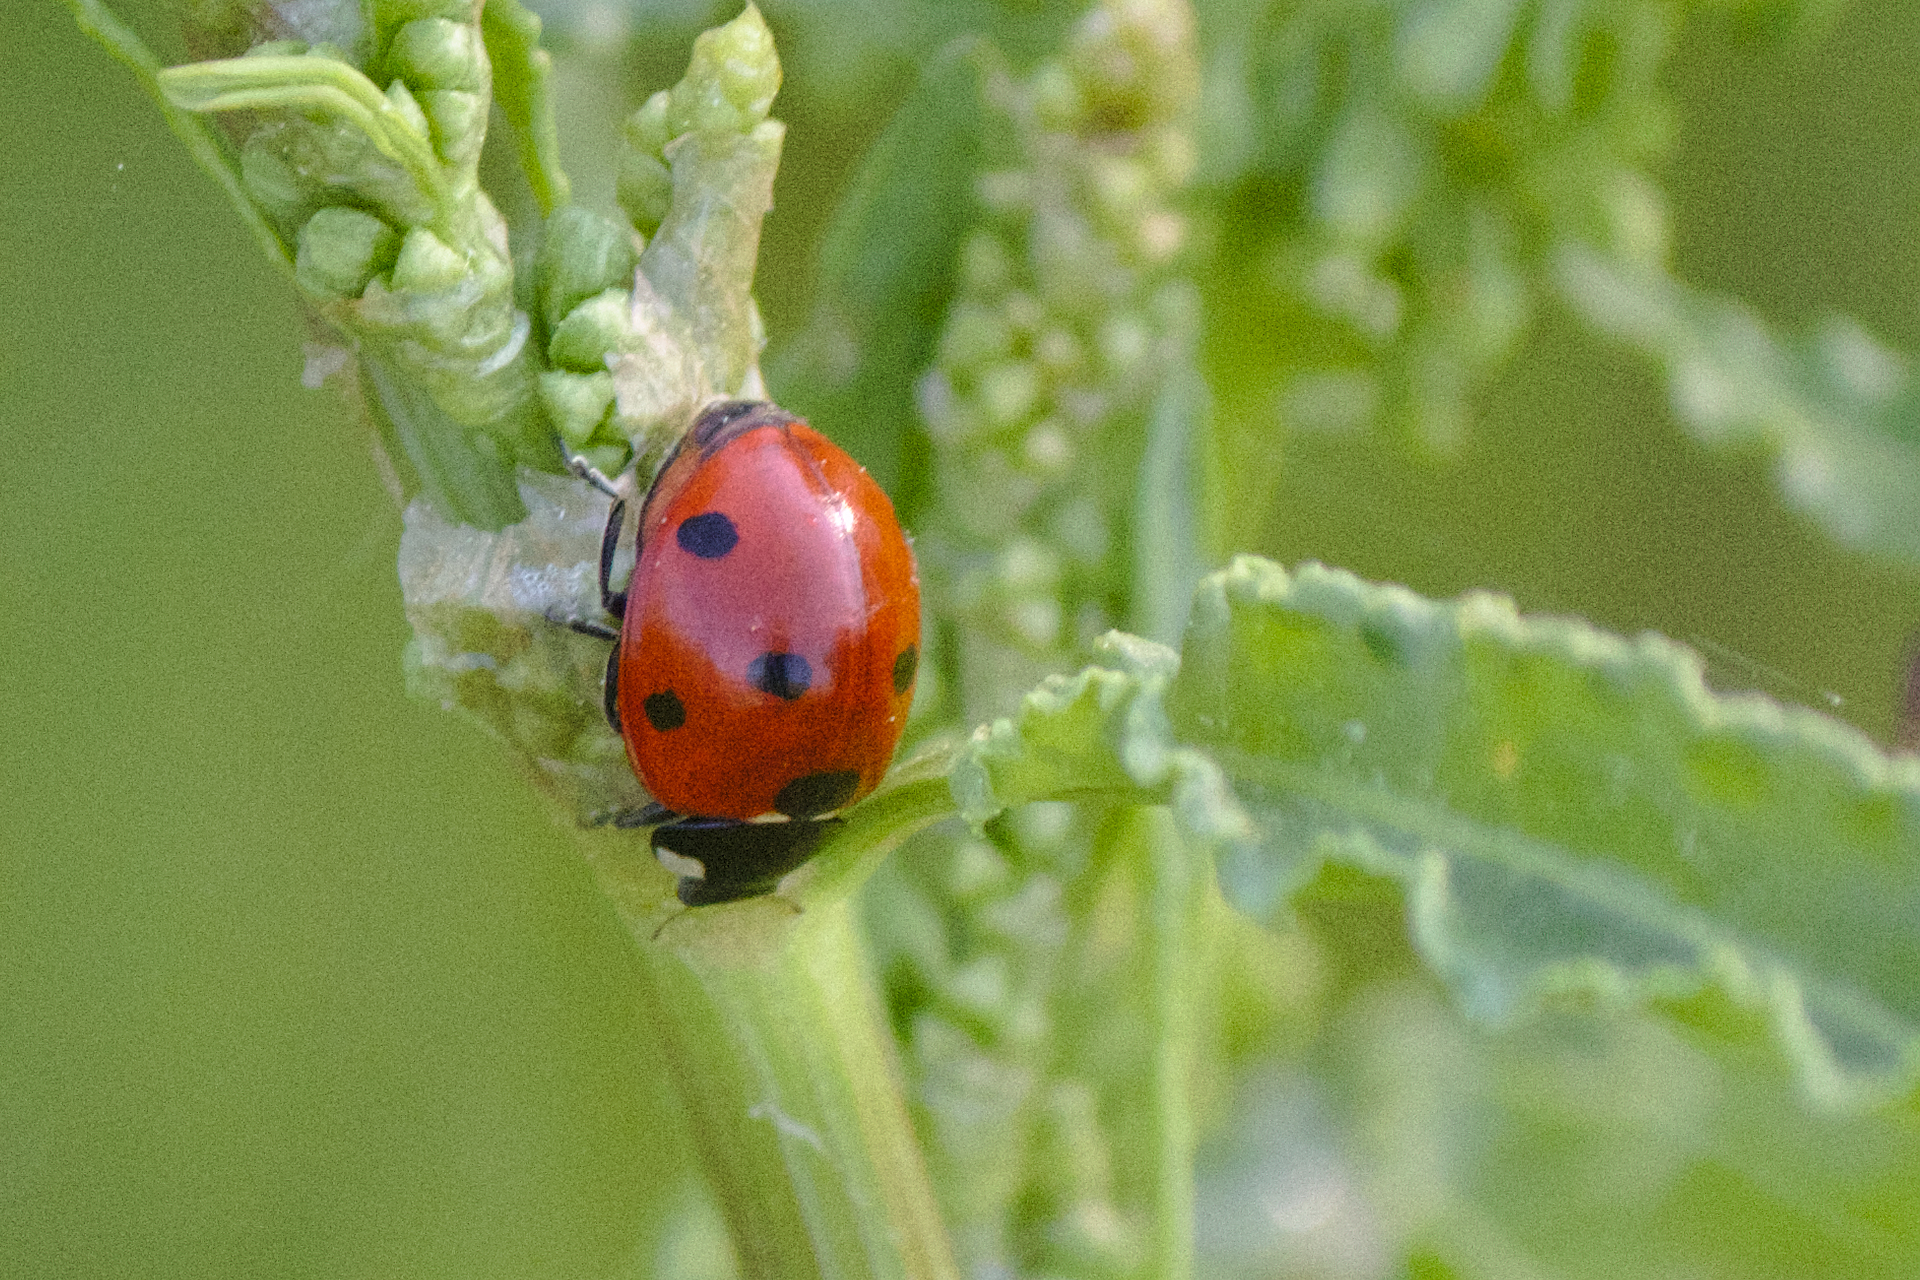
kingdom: Animalia
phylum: Arthropoda
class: Insecta
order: Coleoptera
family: Coccinellidae
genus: Coccinella
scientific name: Coccinella septempunctata
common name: Sevenspotted lady beetle
